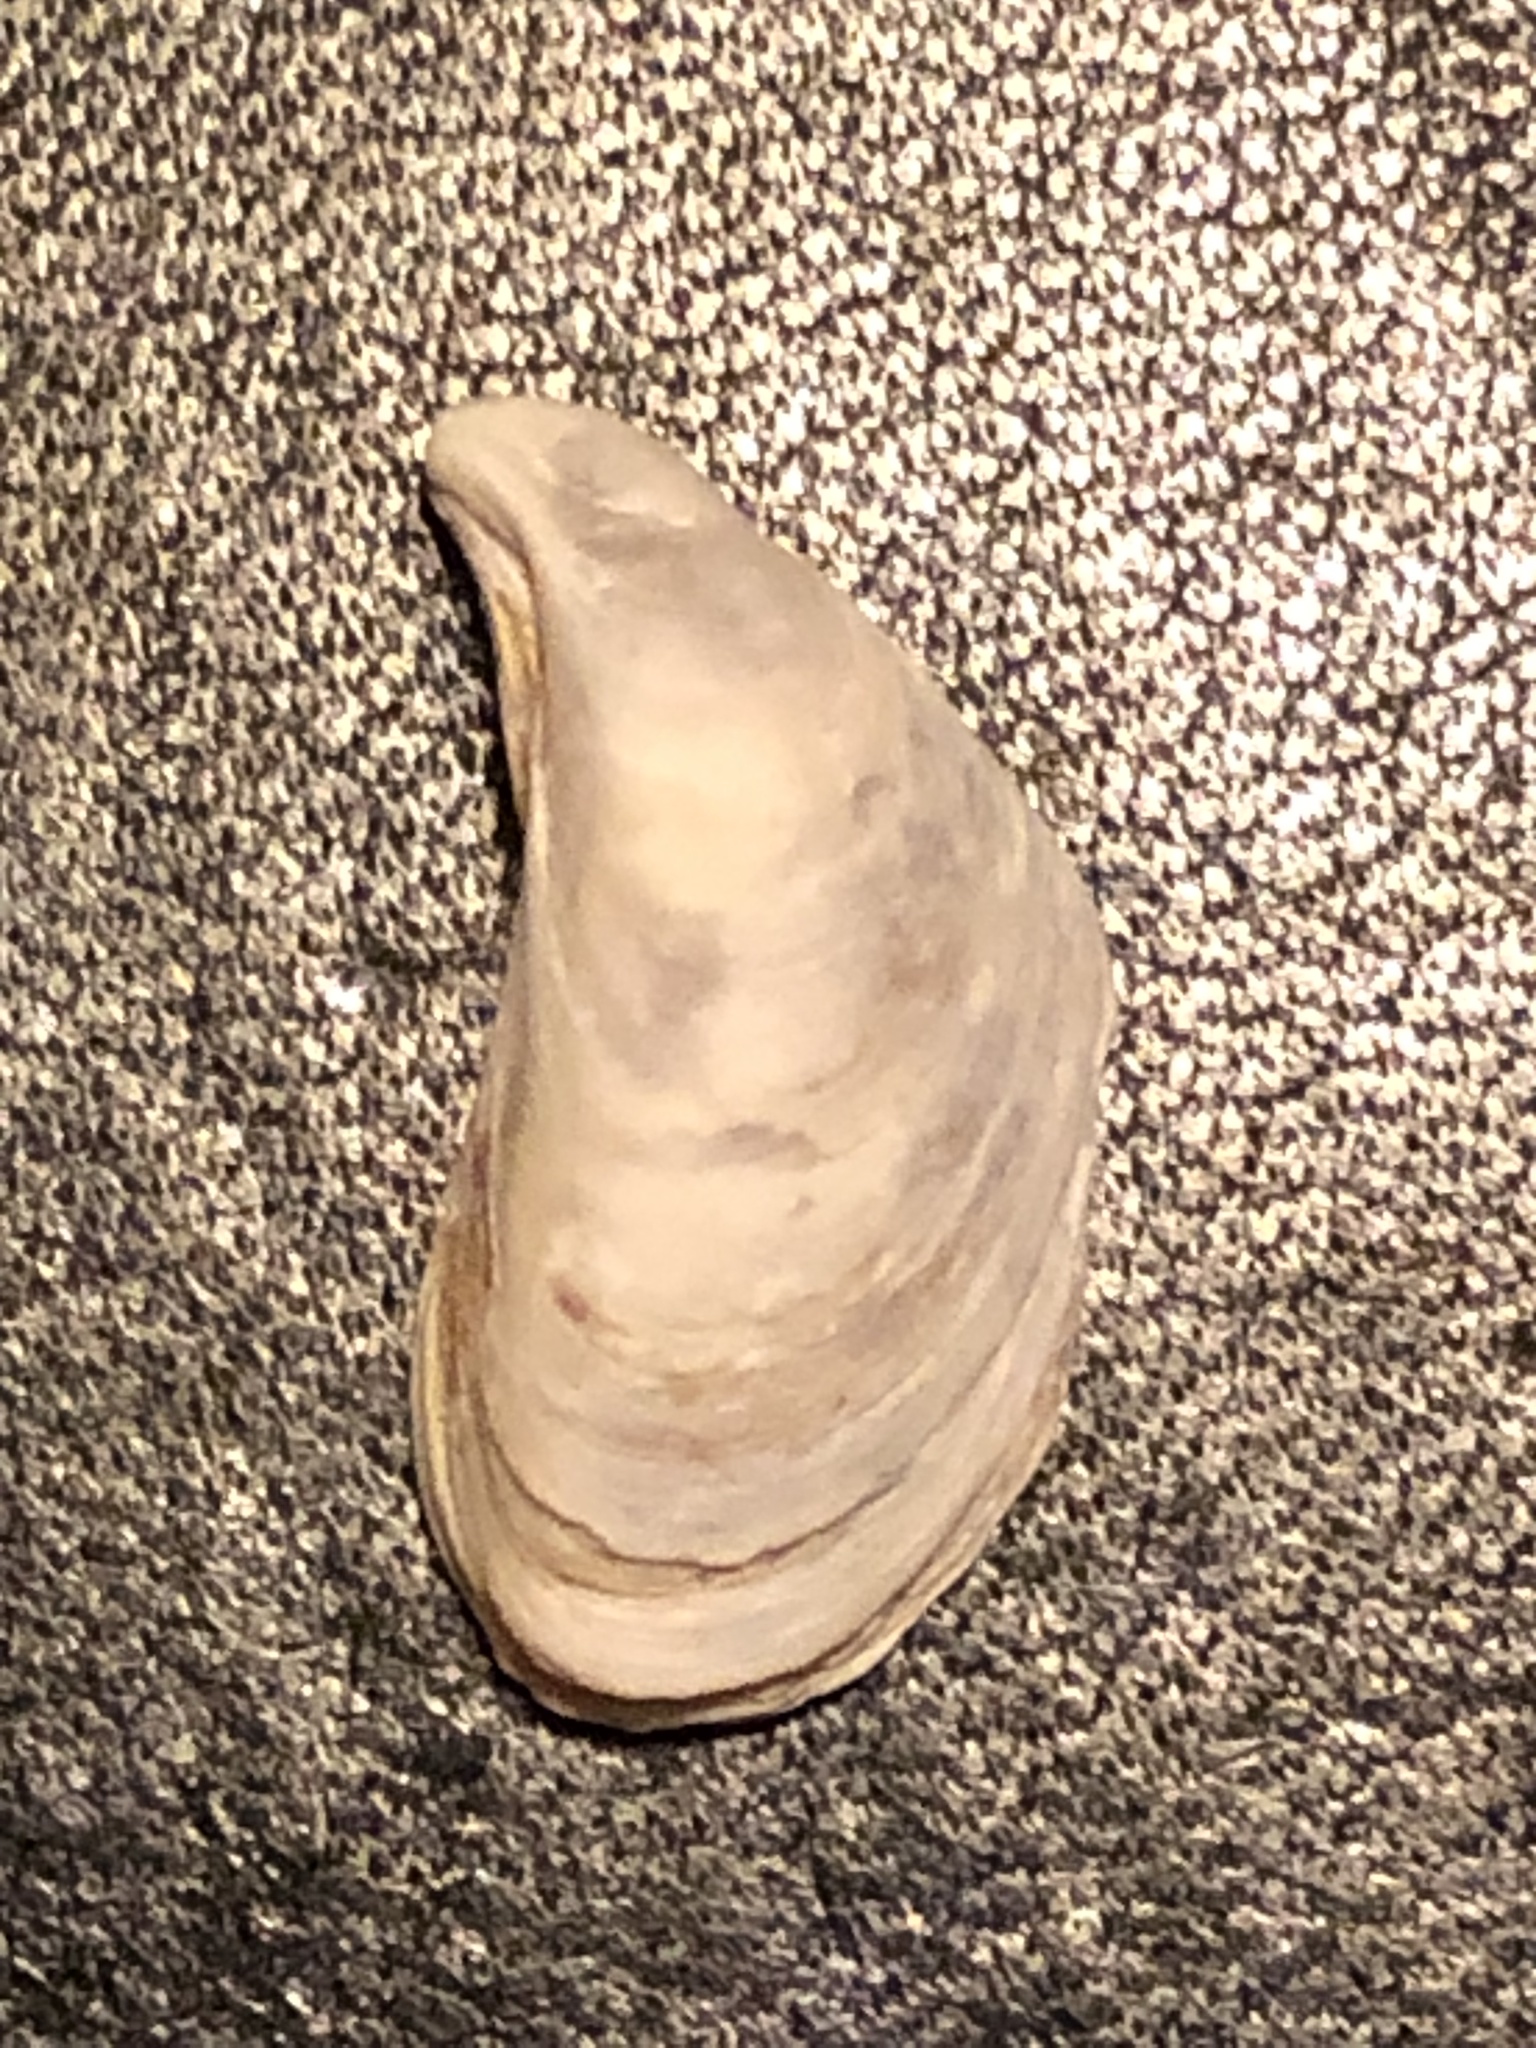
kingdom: Animalia
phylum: Mollusca
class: Bivalvia
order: Myida
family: Dreissenidae
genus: Dreissena
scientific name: Dreissena bugensis
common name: Quagga mussel
